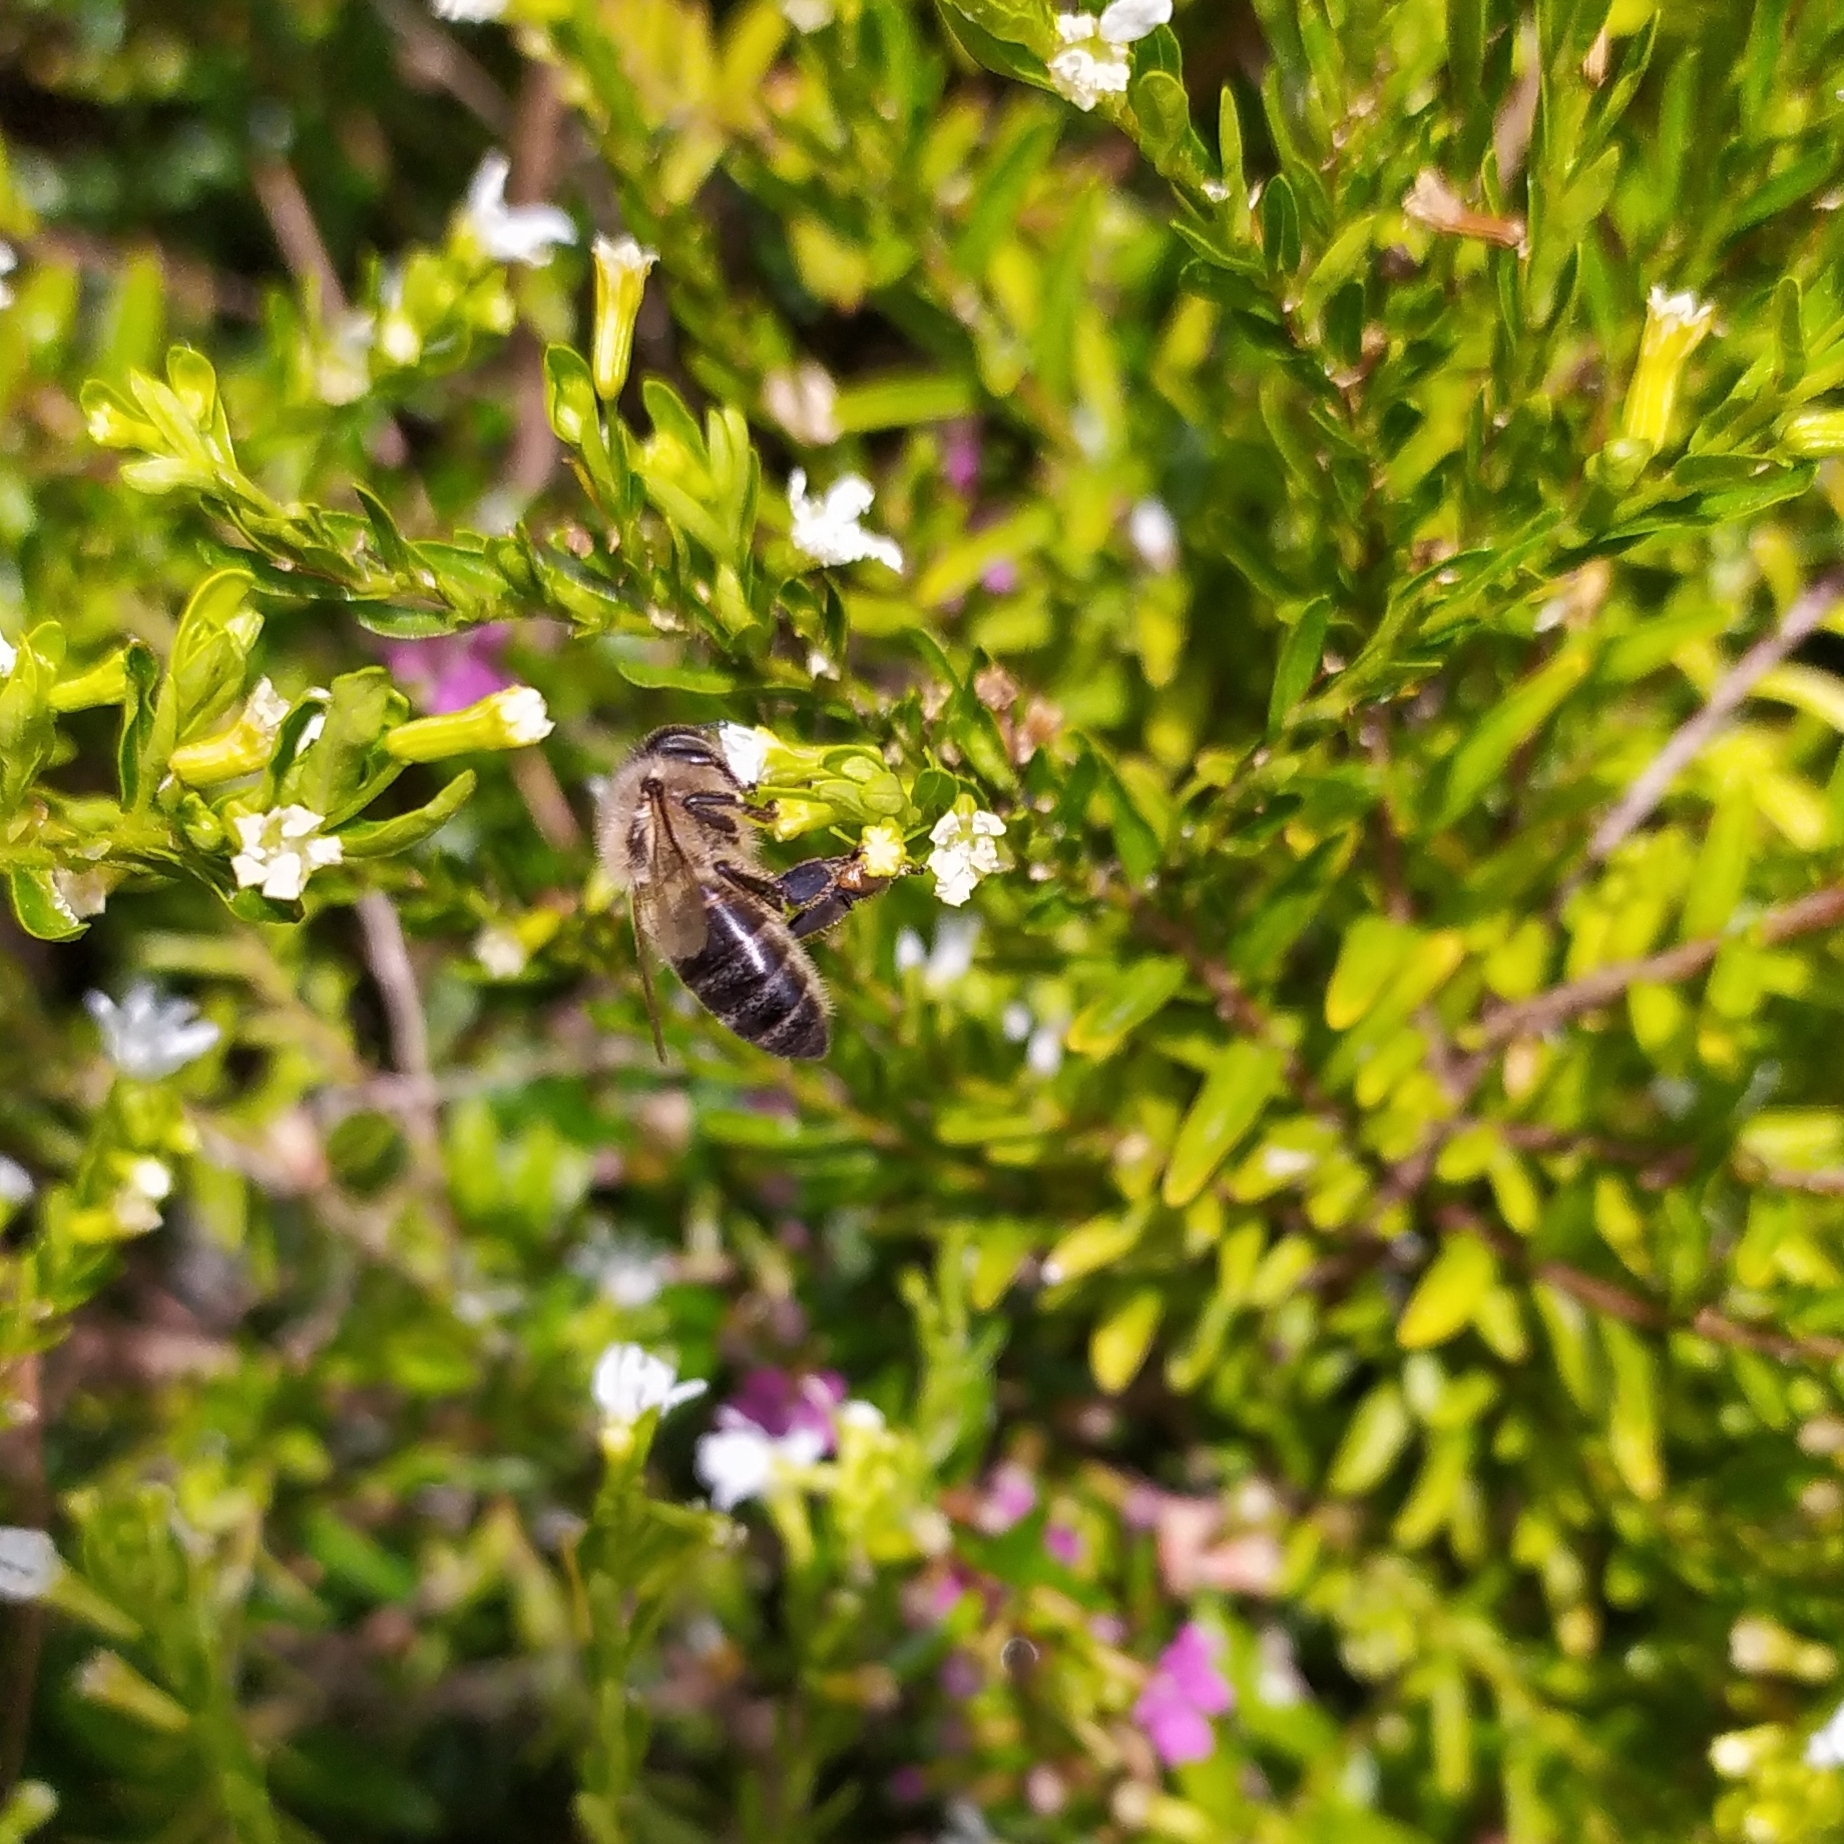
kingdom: Animalia
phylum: Arthropoda
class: Insecta
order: Hymenoptera
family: Apidae
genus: Apis
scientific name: Apis mellifera
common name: Honey bee
